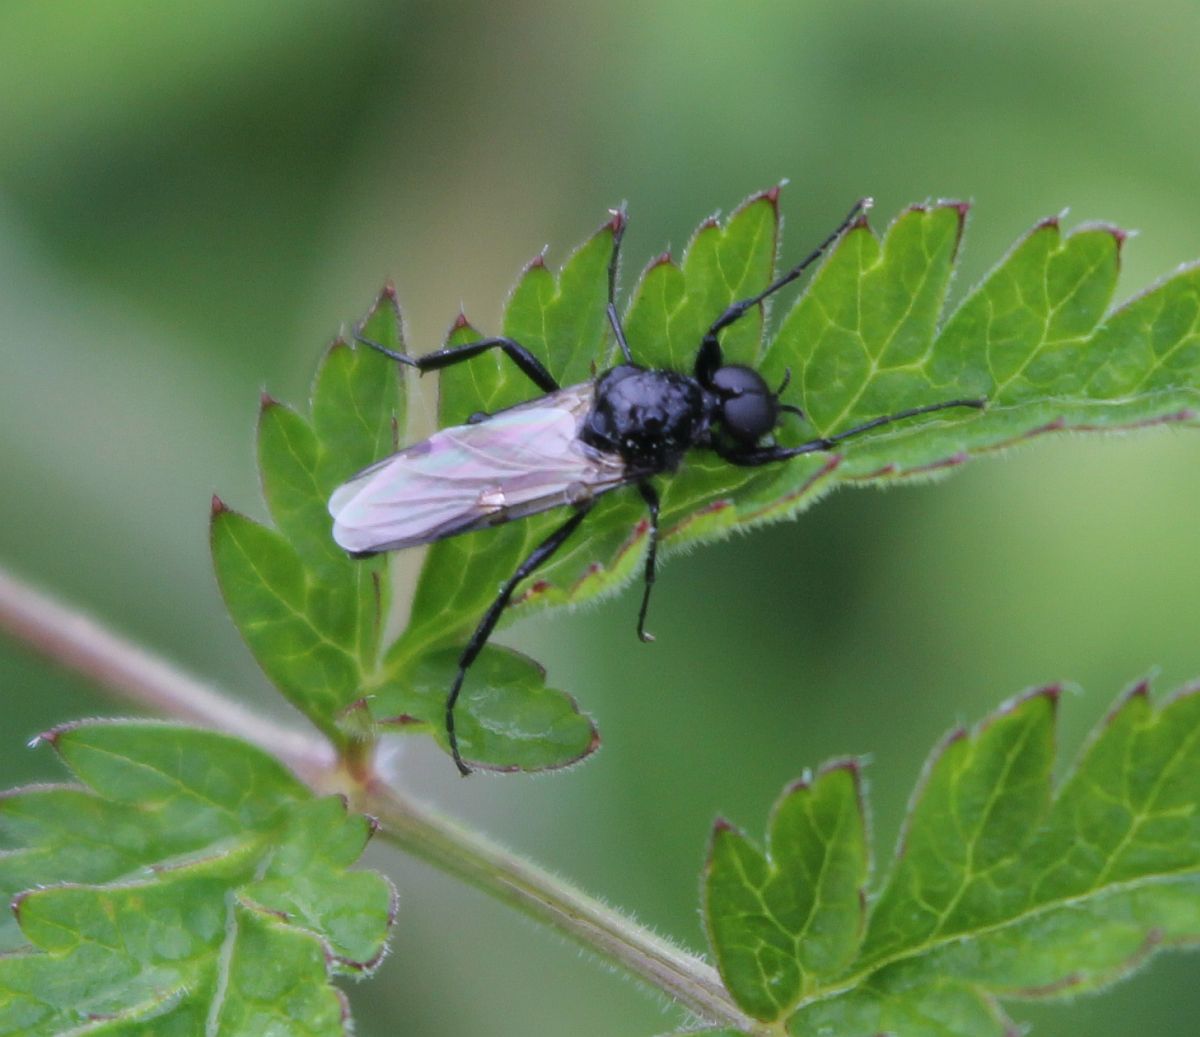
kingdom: Animalia
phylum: Arthropoda
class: Insecta
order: Diptera
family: Bibionidae
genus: Bibio
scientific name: Bibio marci
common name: St marks fly
